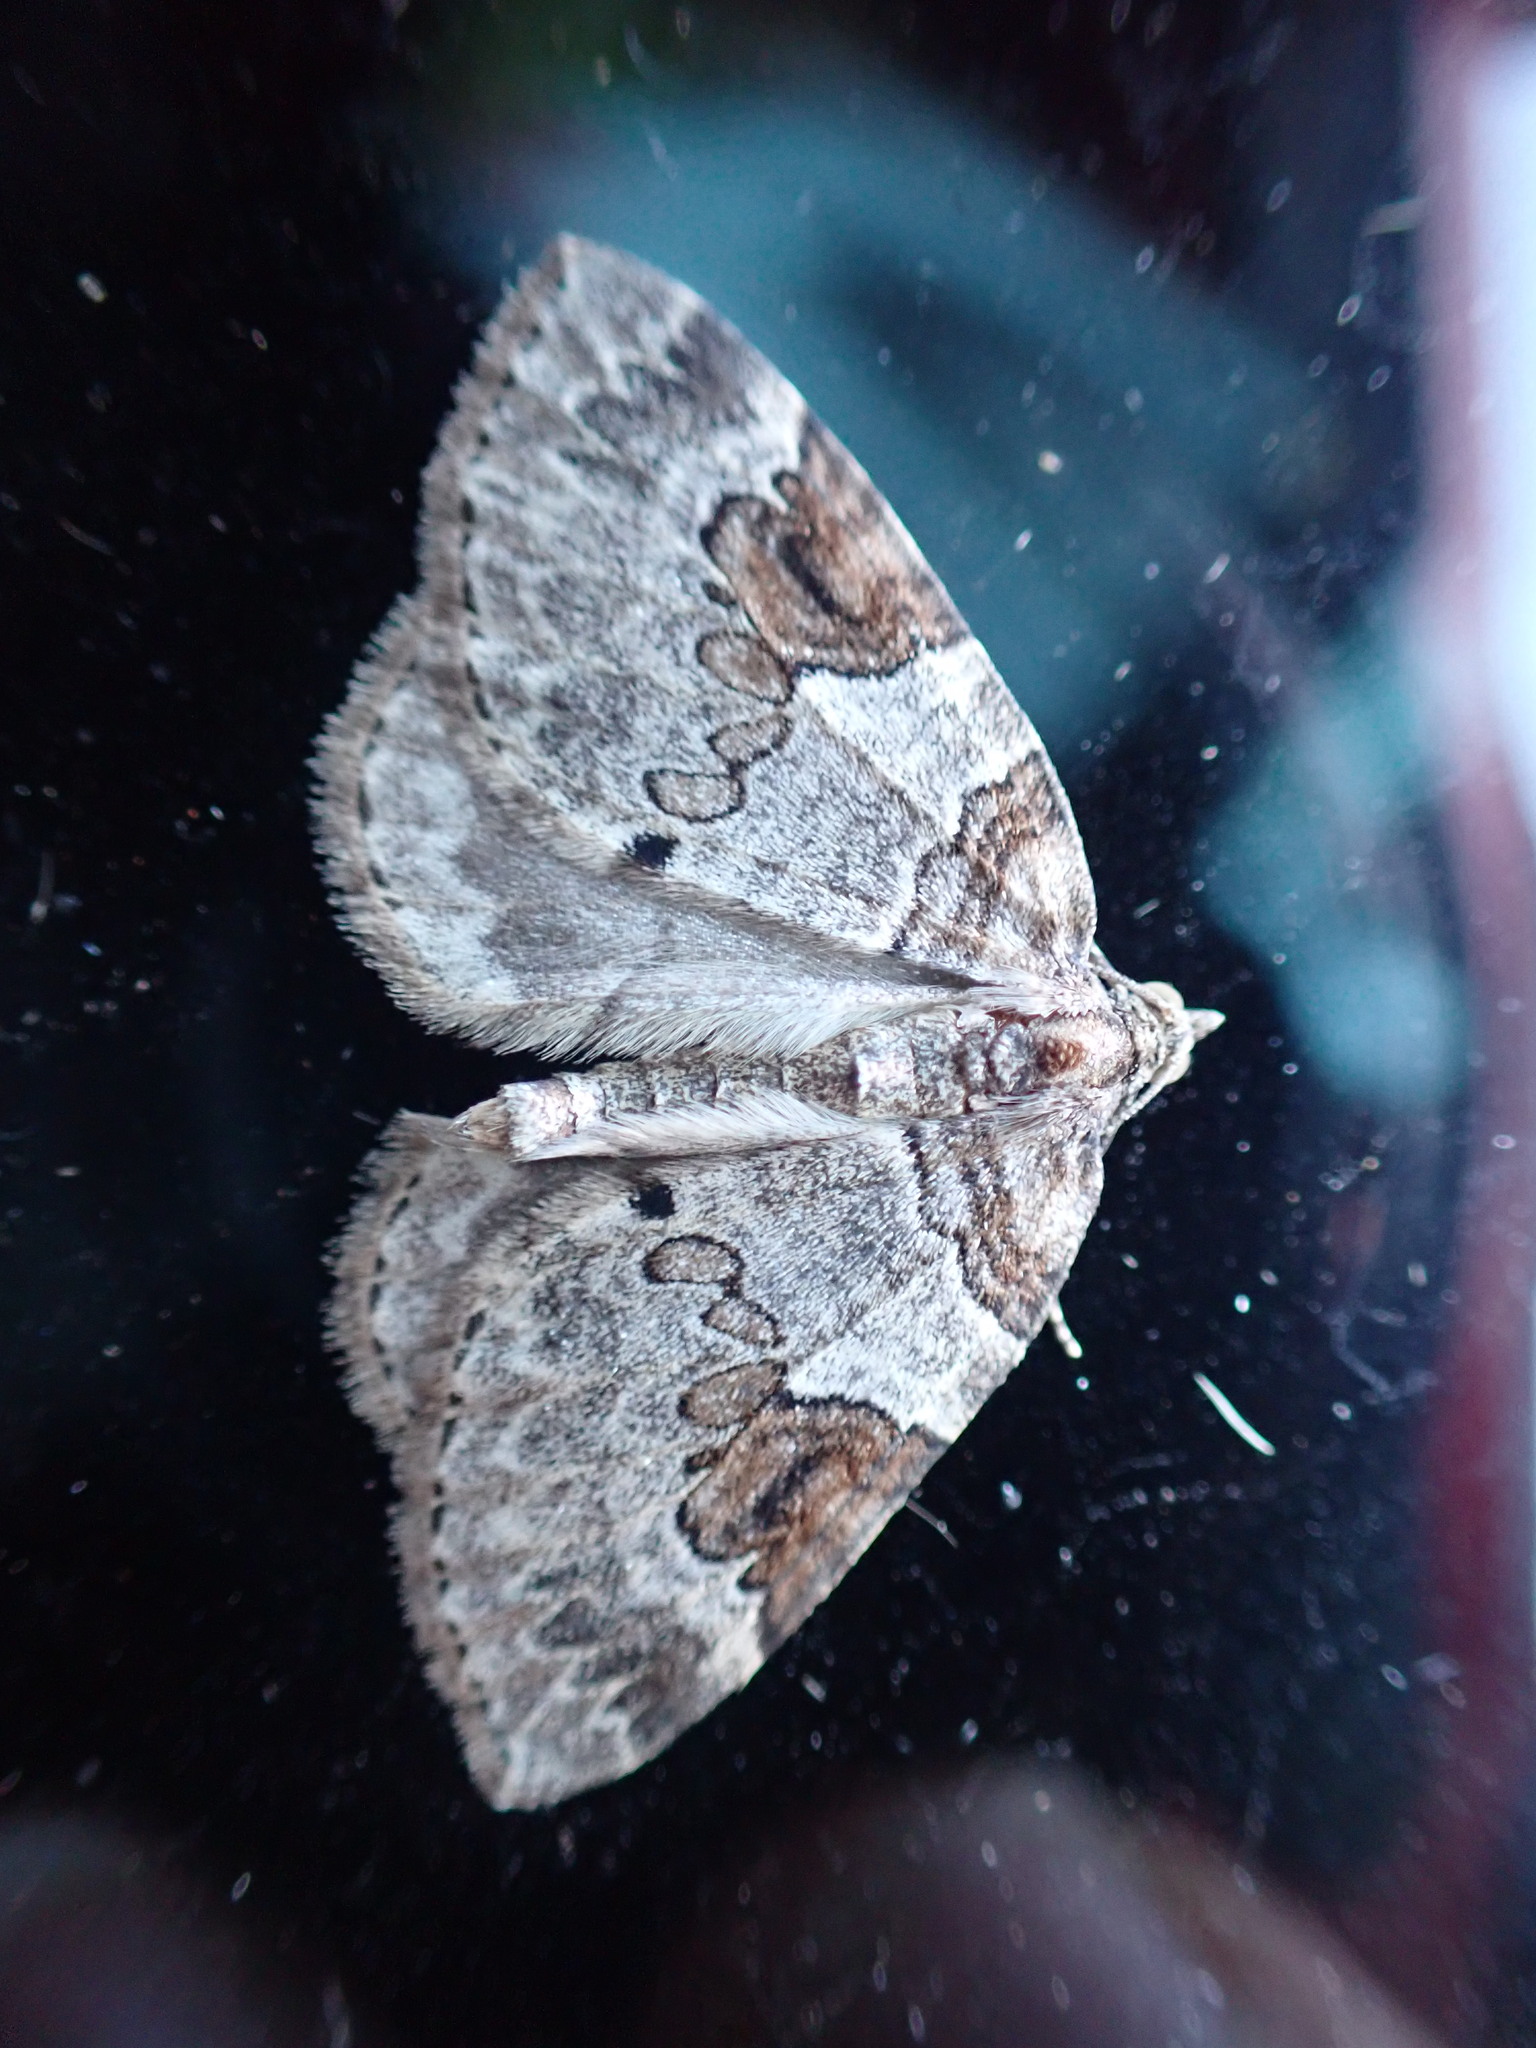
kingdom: Animalia
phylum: Arthropoda
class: Insecta
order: Lepidoptera
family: Geometridae
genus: Plemyria
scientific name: Plemyria georgii
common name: George's carpet moth
